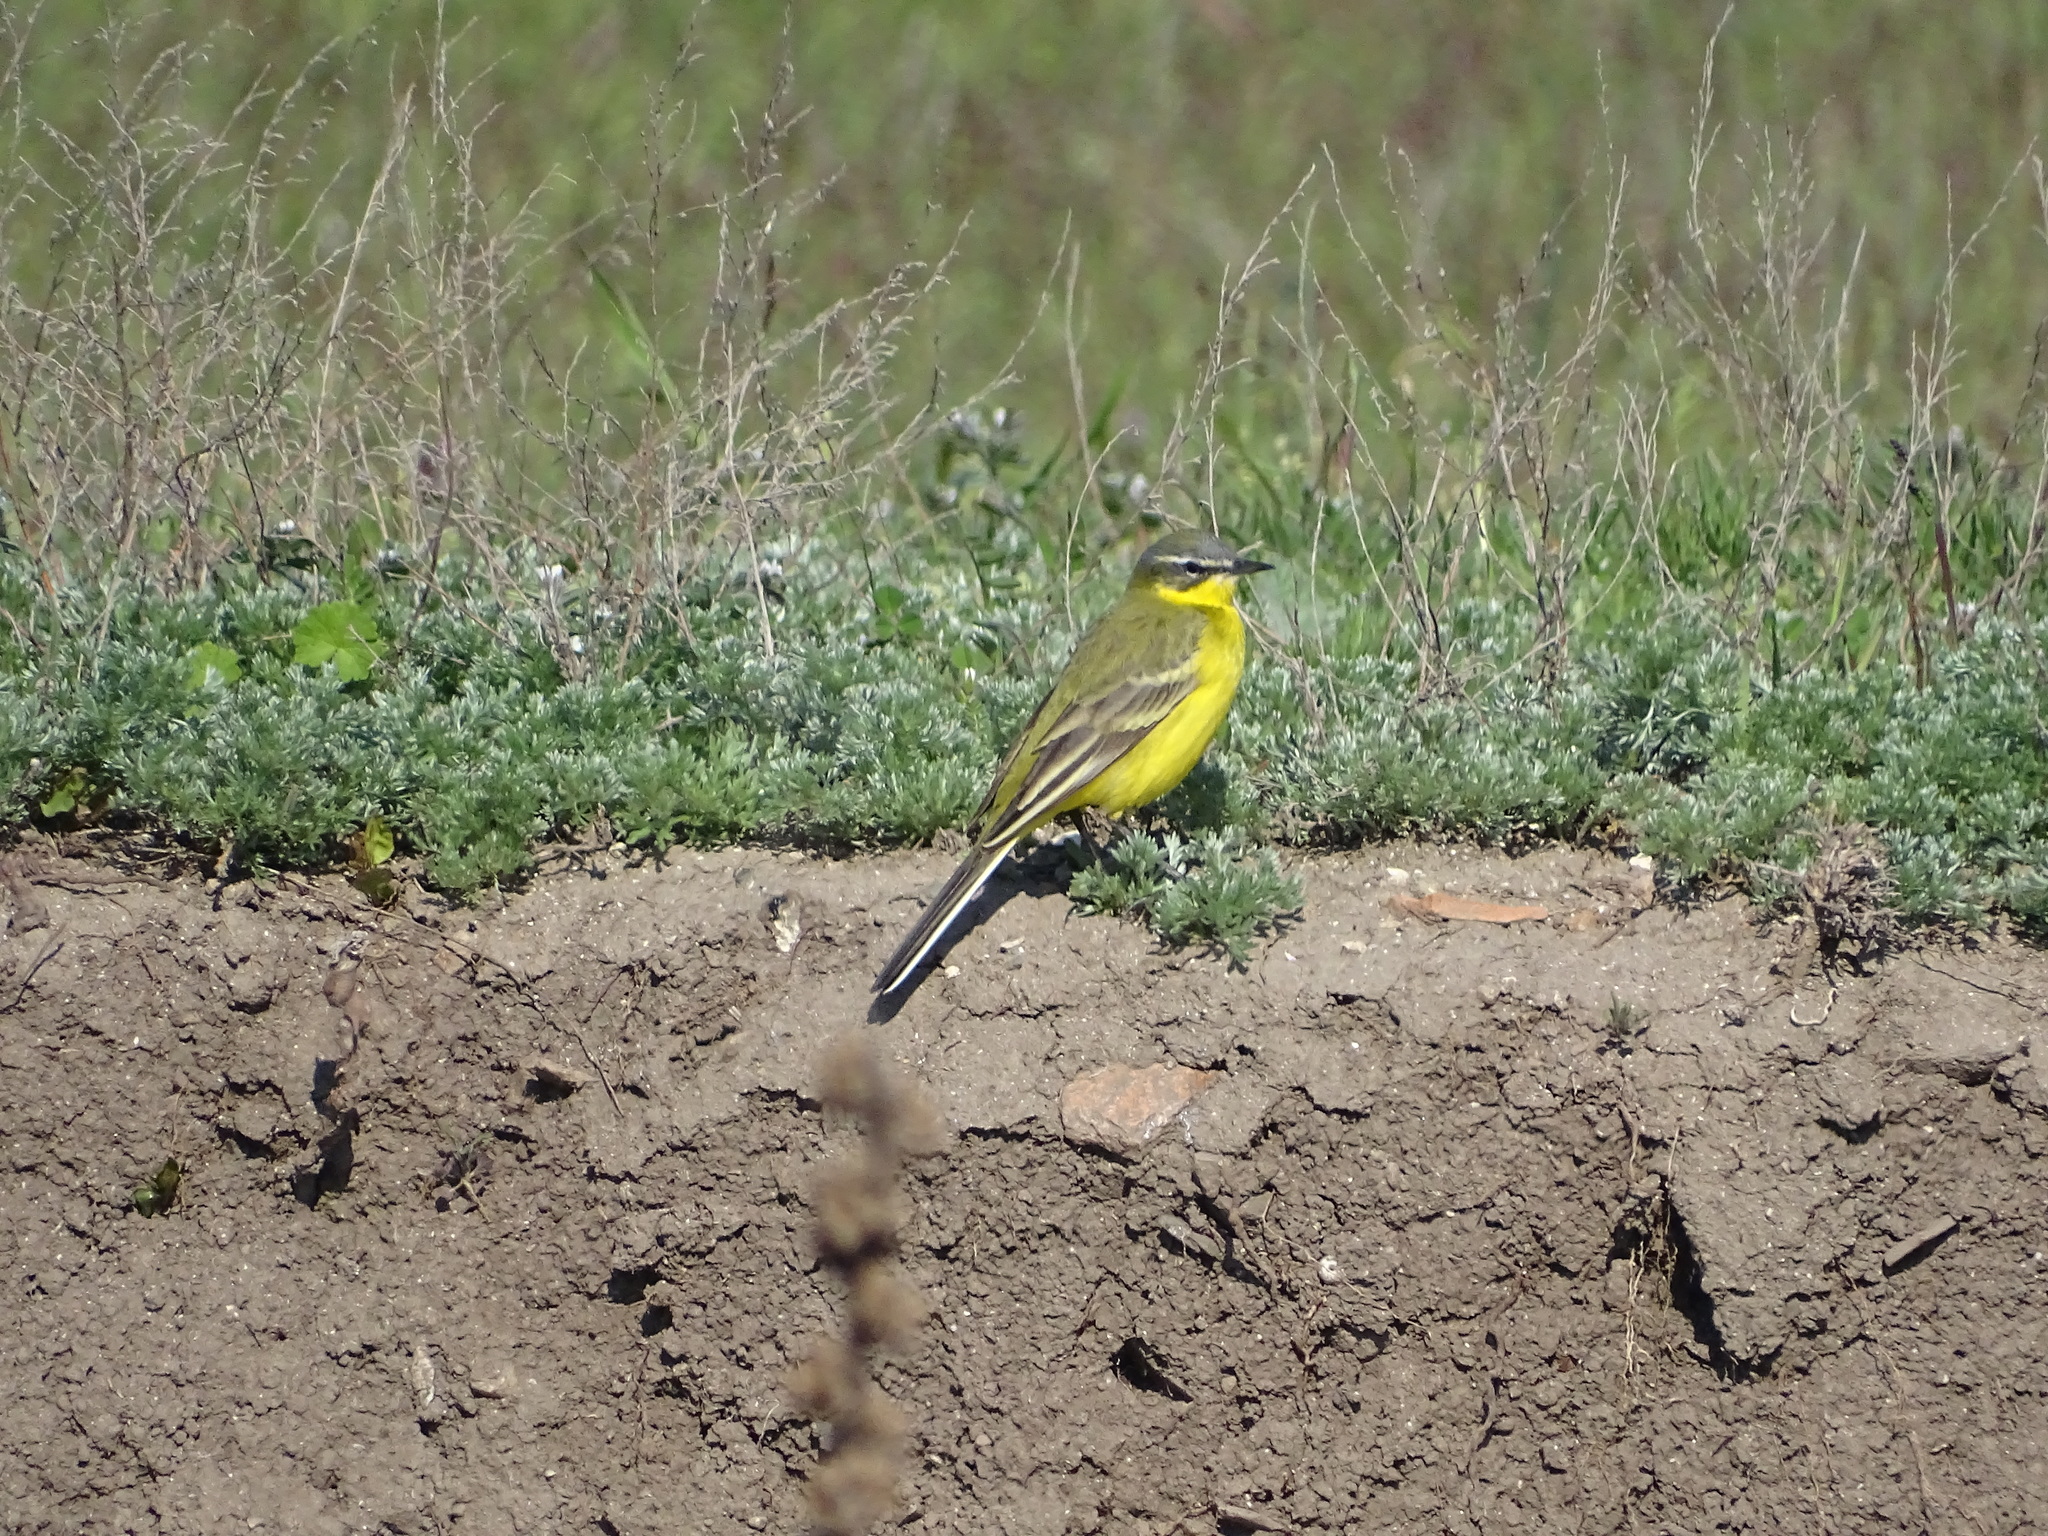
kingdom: Animalia
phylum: Chordata
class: Aves
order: Passeriformes
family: Motacillidae
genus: Motacilla
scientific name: Motacilla flava
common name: Western yellow wagtail
